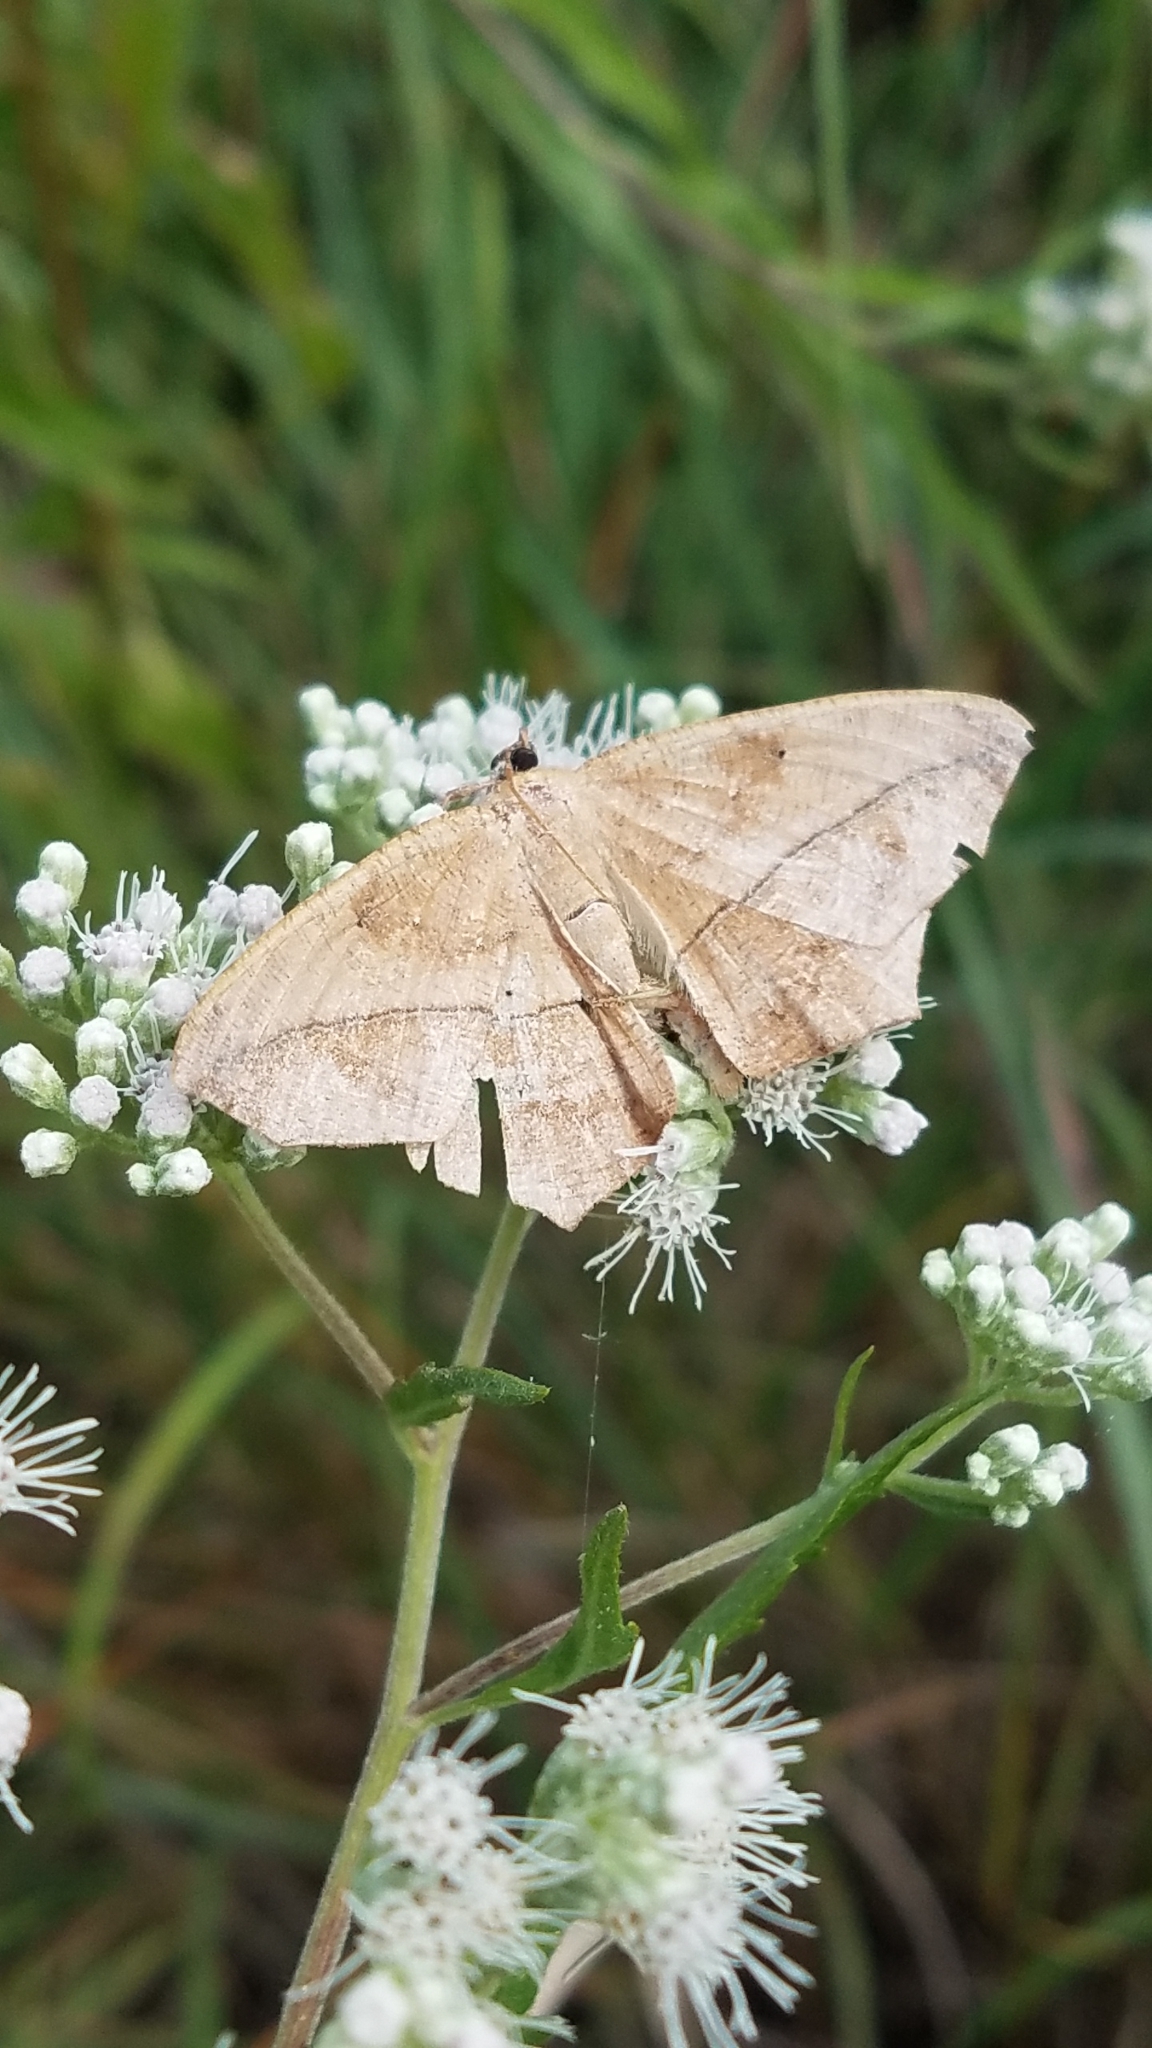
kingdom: Animalia
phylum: Arthropoda
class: Insecta
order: Lepidoptera
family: Geometridae
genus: Prochoerodes
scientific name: Prochoerodes lineola
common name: Large maple spanworm
